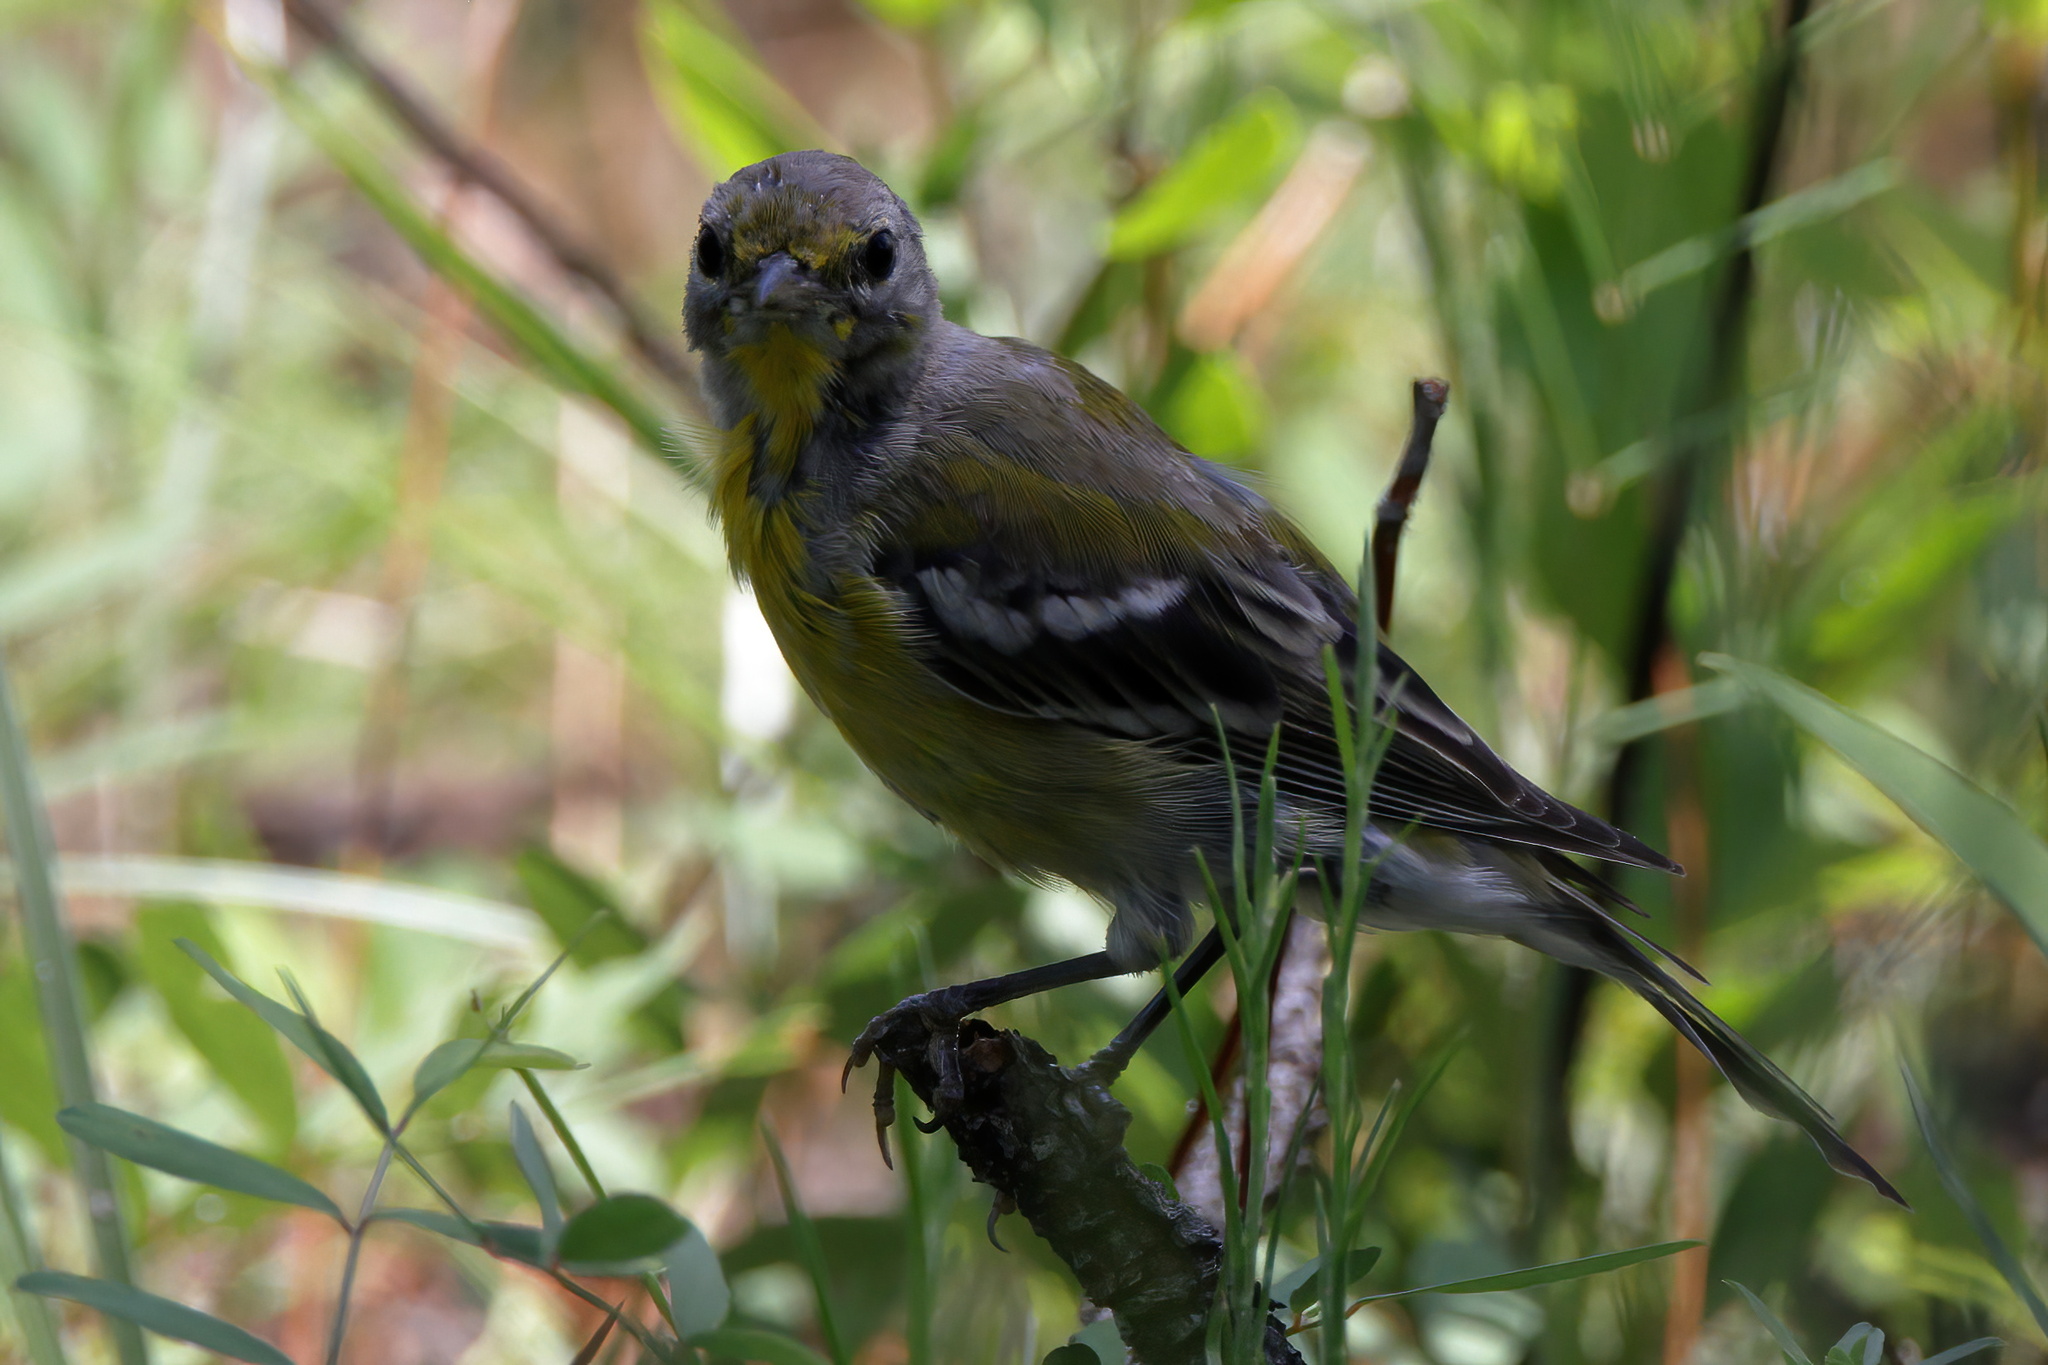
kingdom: Animalia
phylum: Chordata
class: Aves
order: Passeriformes
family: Parulidae
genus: Setophaga
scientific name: Setophaga pinus
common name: Pine warbler
